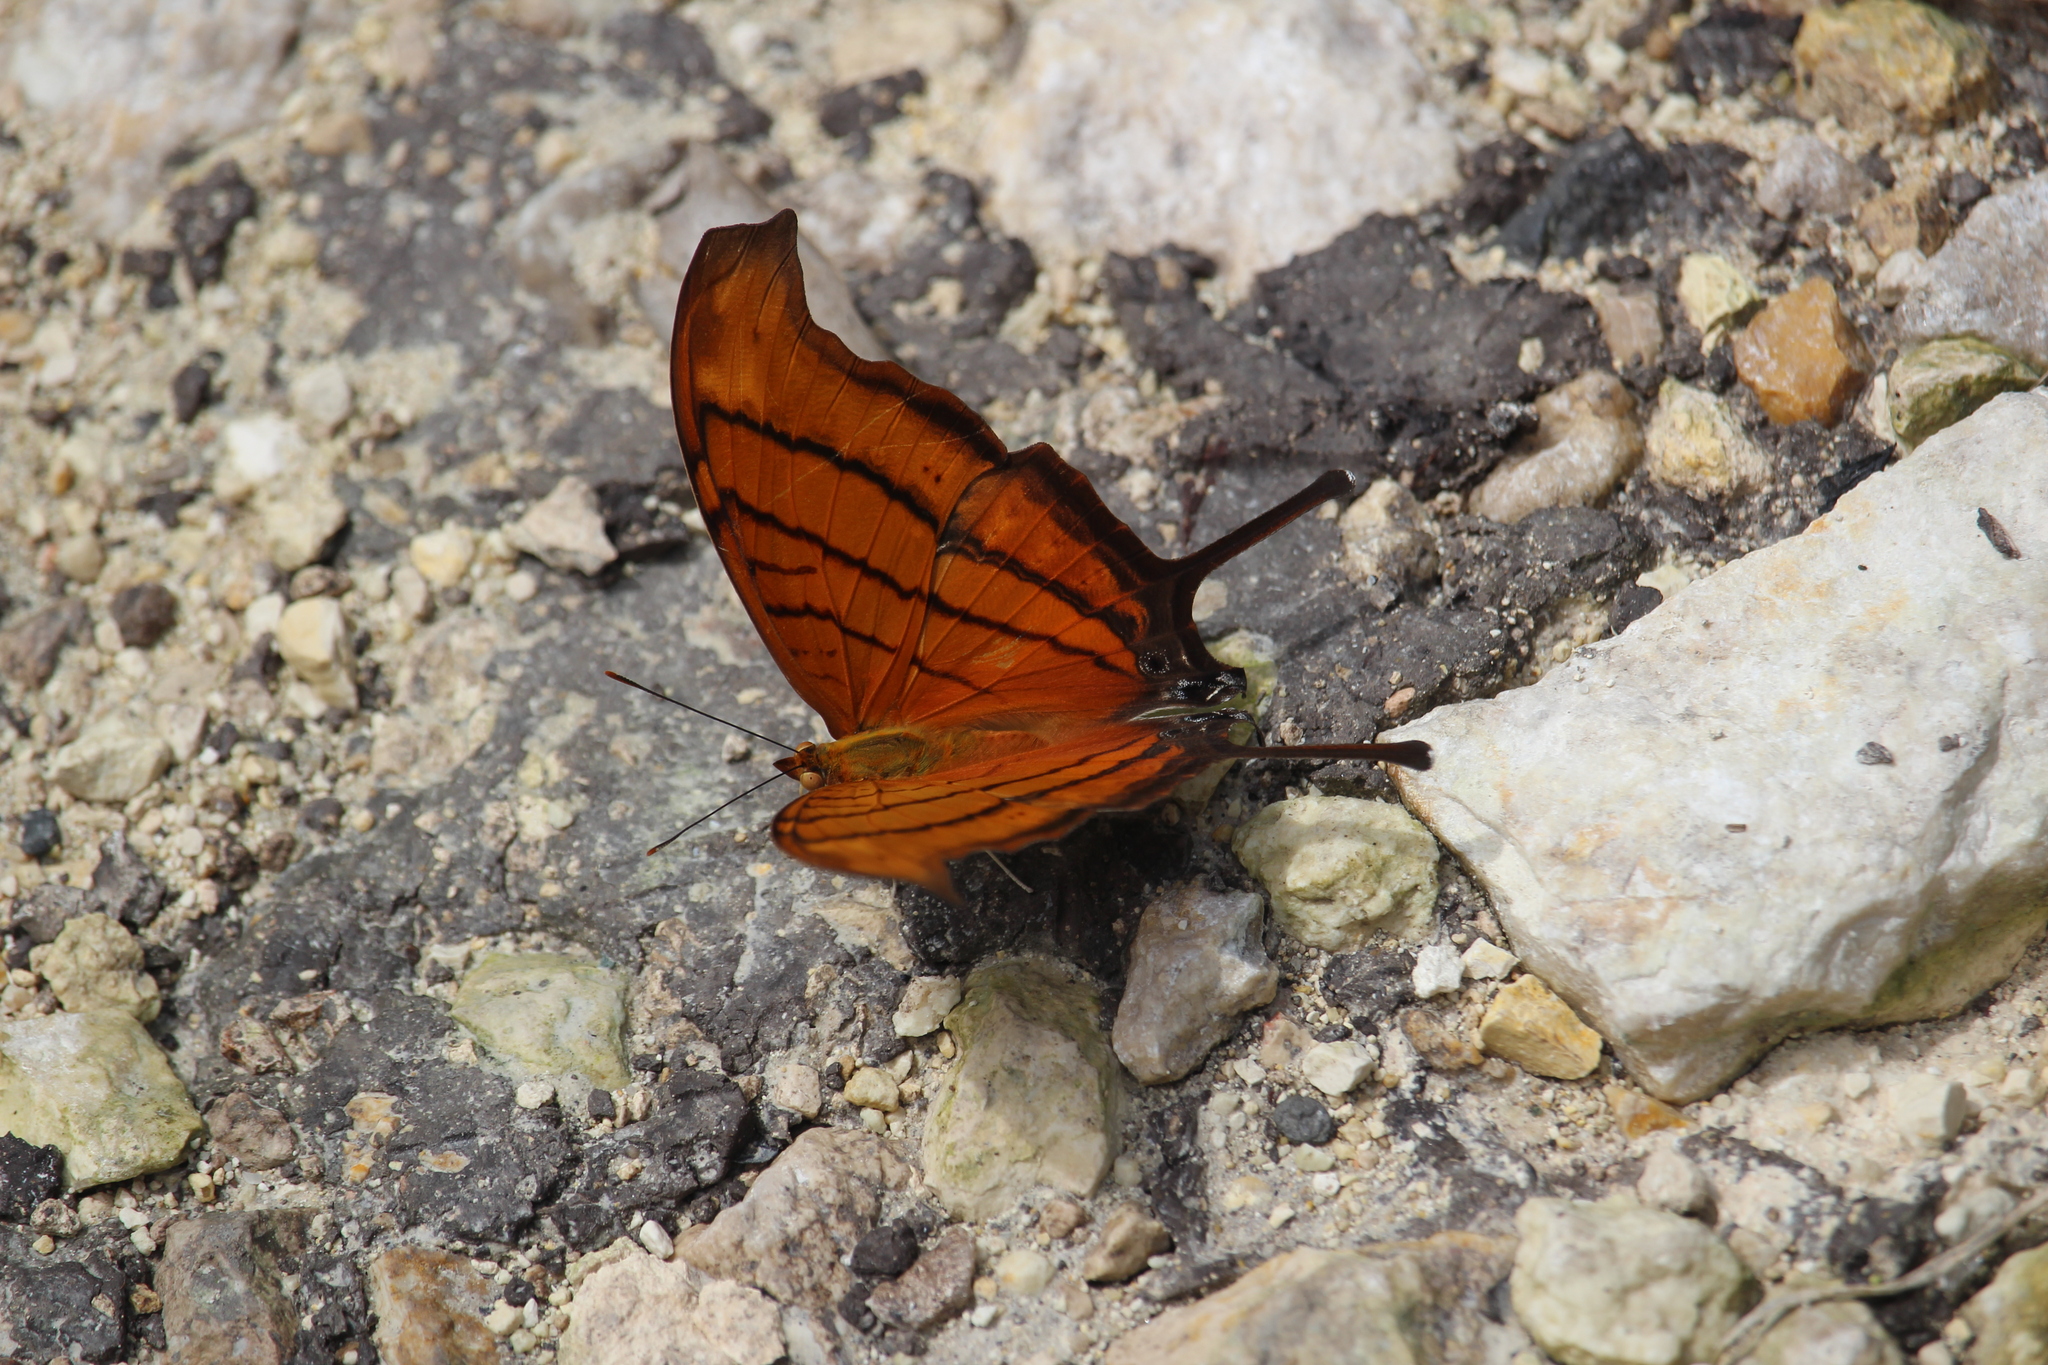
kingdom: Animalia
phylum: Arthropoda
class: Insecta
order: Lepidoptera
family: Nymphalidae
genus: Marpesia
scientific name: Marpesia petreus
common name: Red dagger wing
